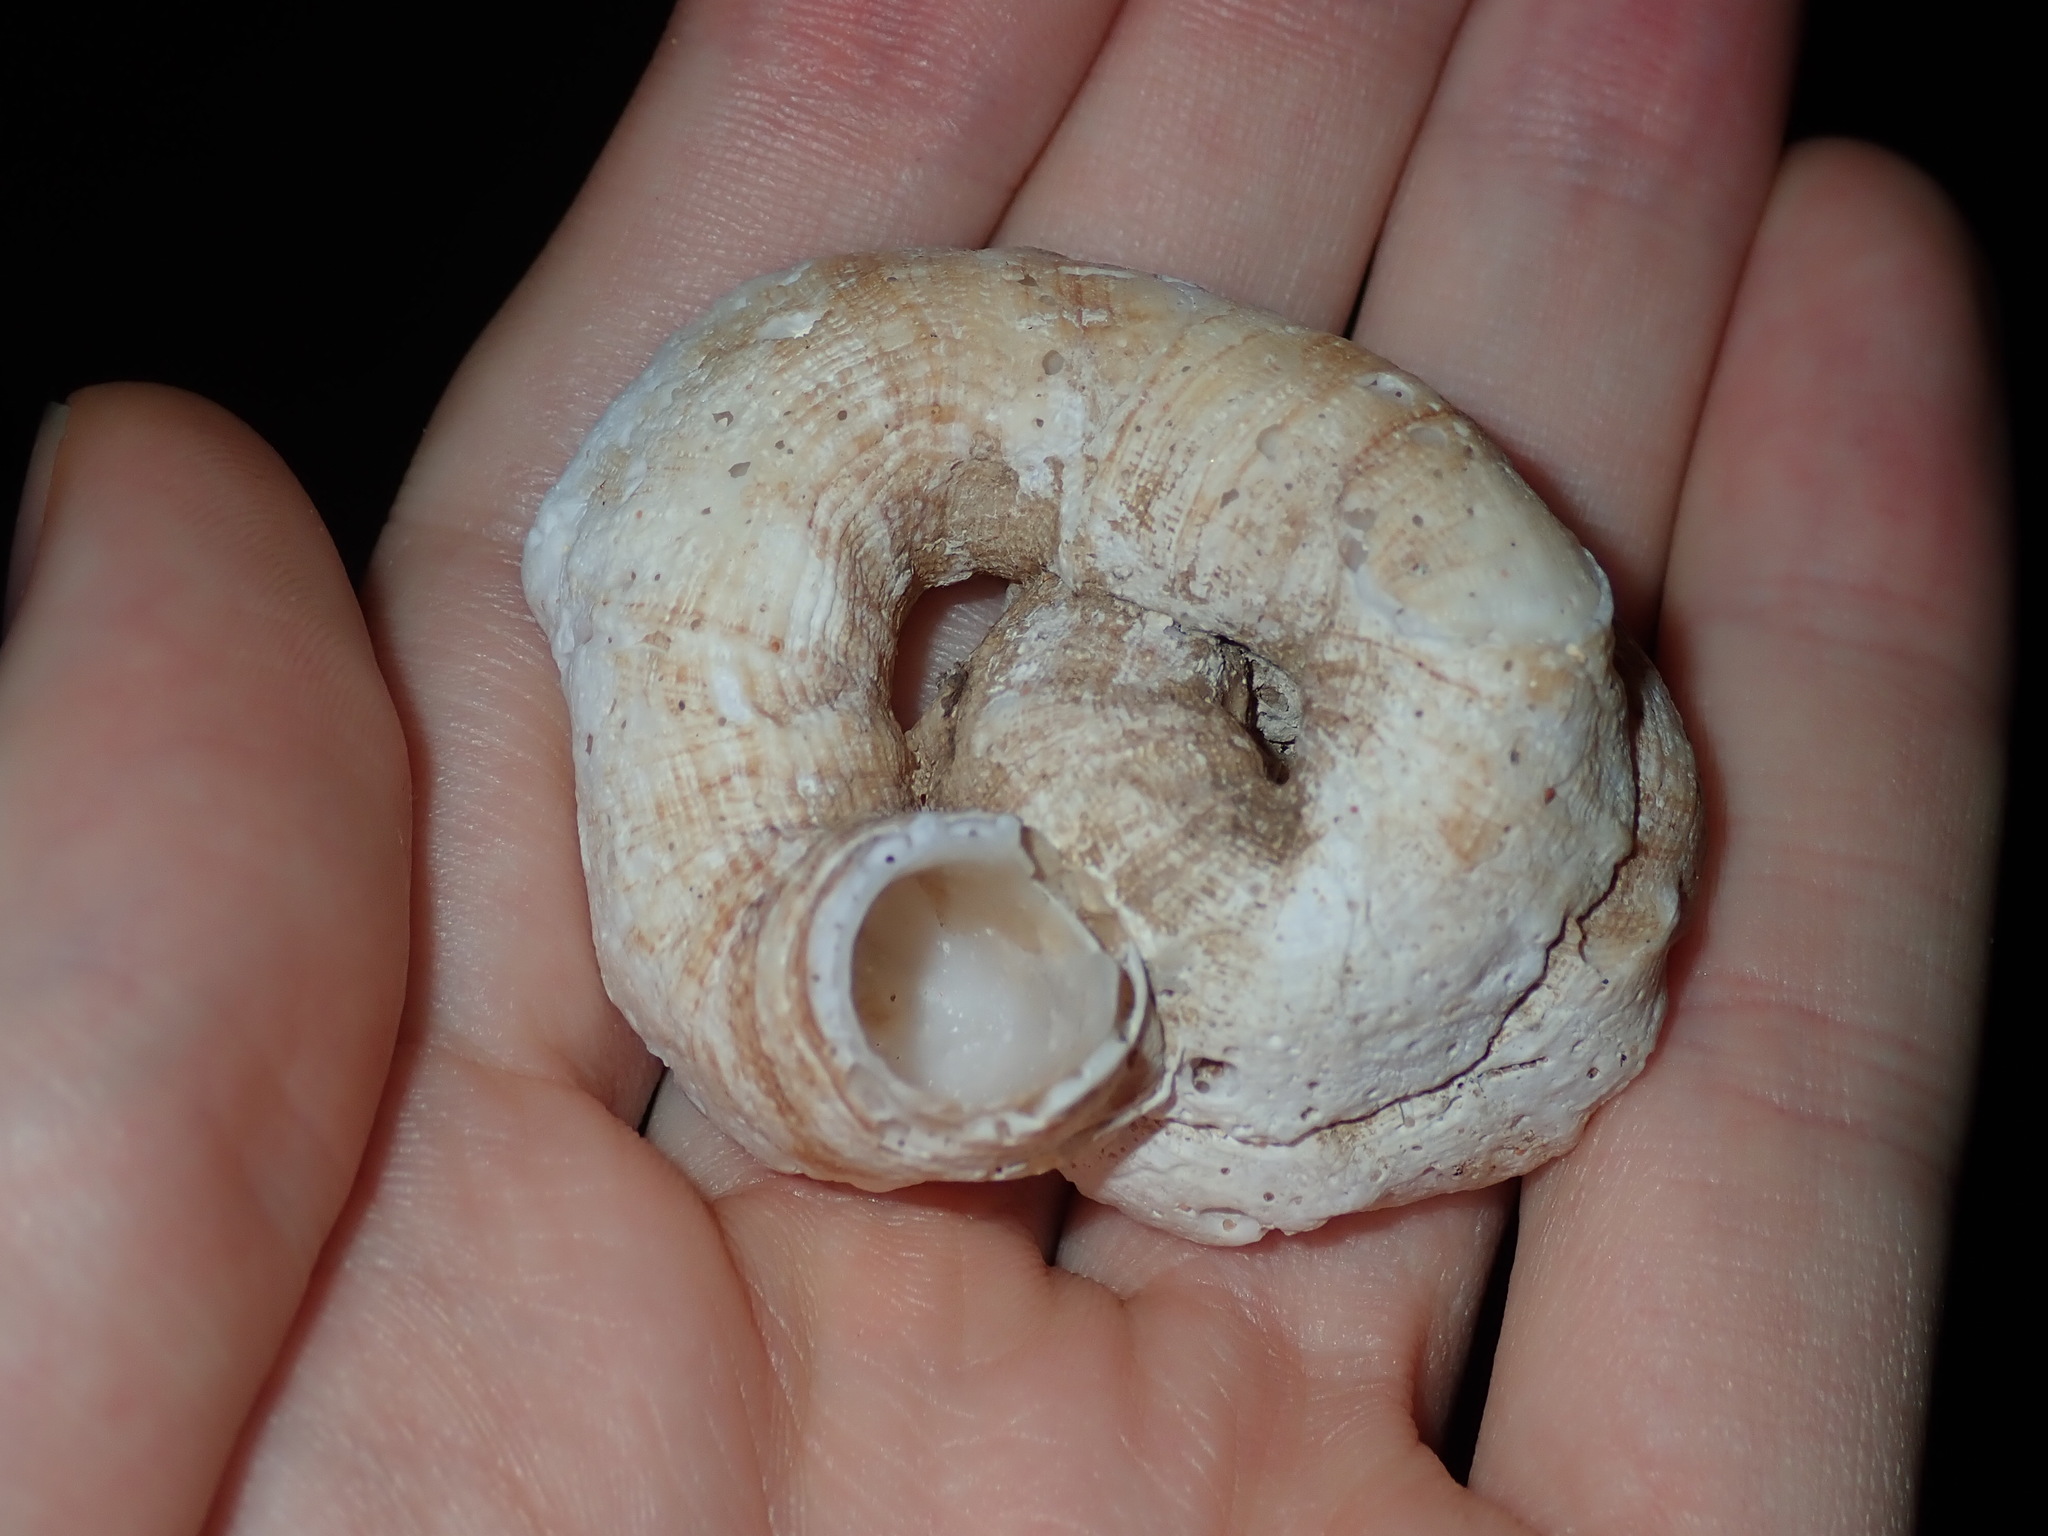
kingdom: Animalia
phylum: Mollusca
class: Gastropoda
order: Littorinimorpha
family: Vermetidae
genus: Thylacodes
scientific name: Thylacodes sipho
